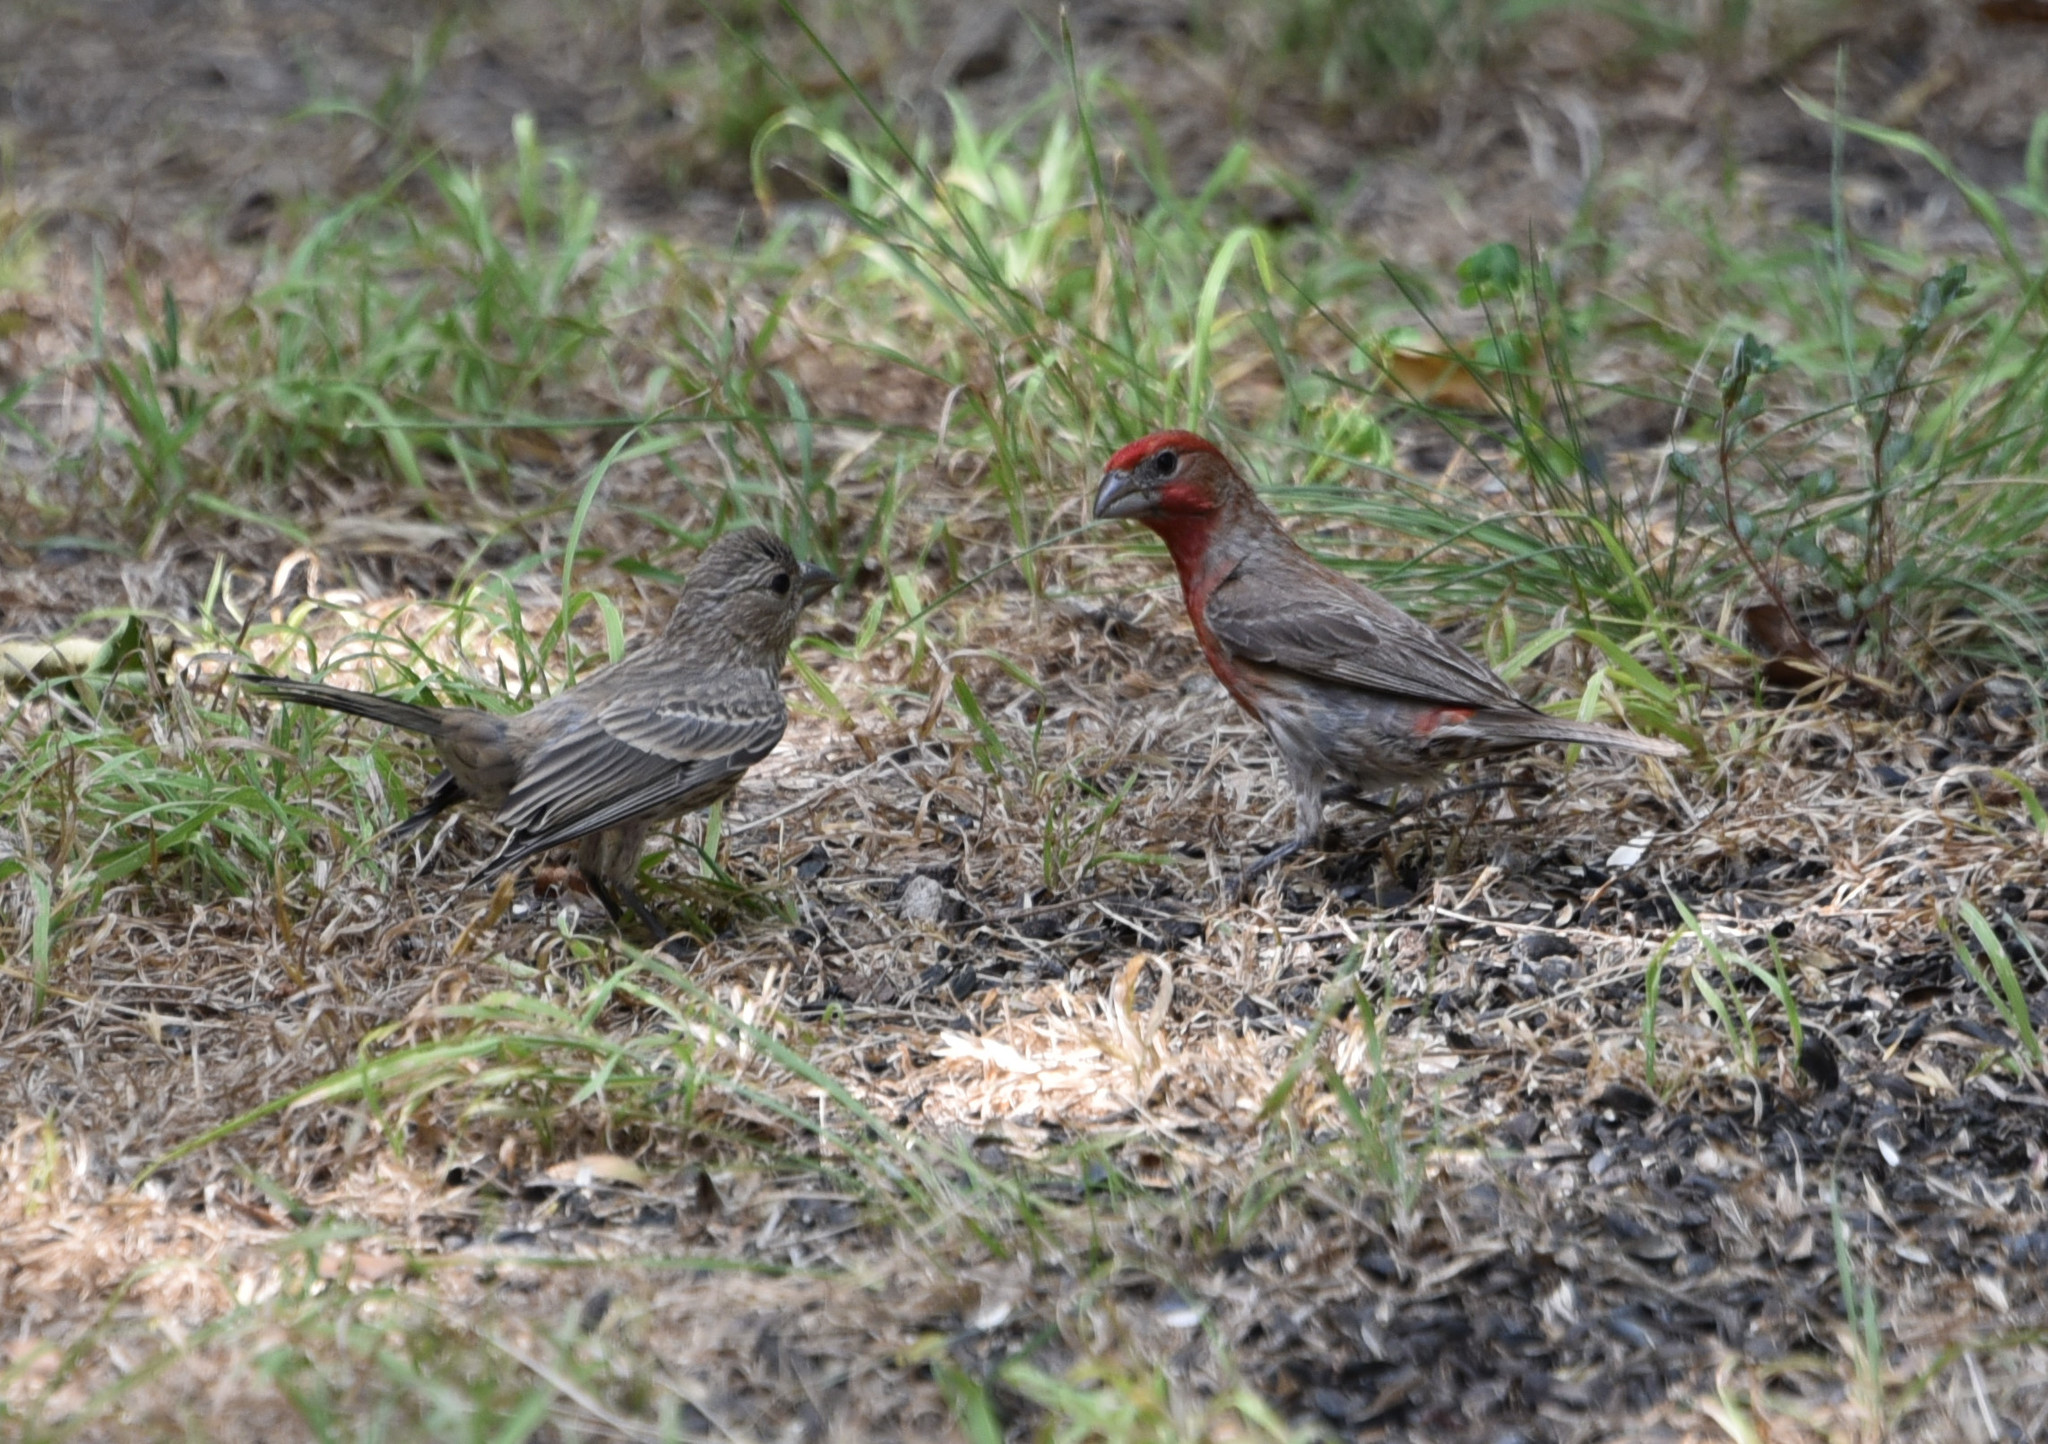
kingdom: Animalia
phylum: Chordata
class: Aves
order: Passeriformes
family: Fringillidae
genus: Haemorhous
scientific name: Haemorhous mexicanus
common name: House finch
